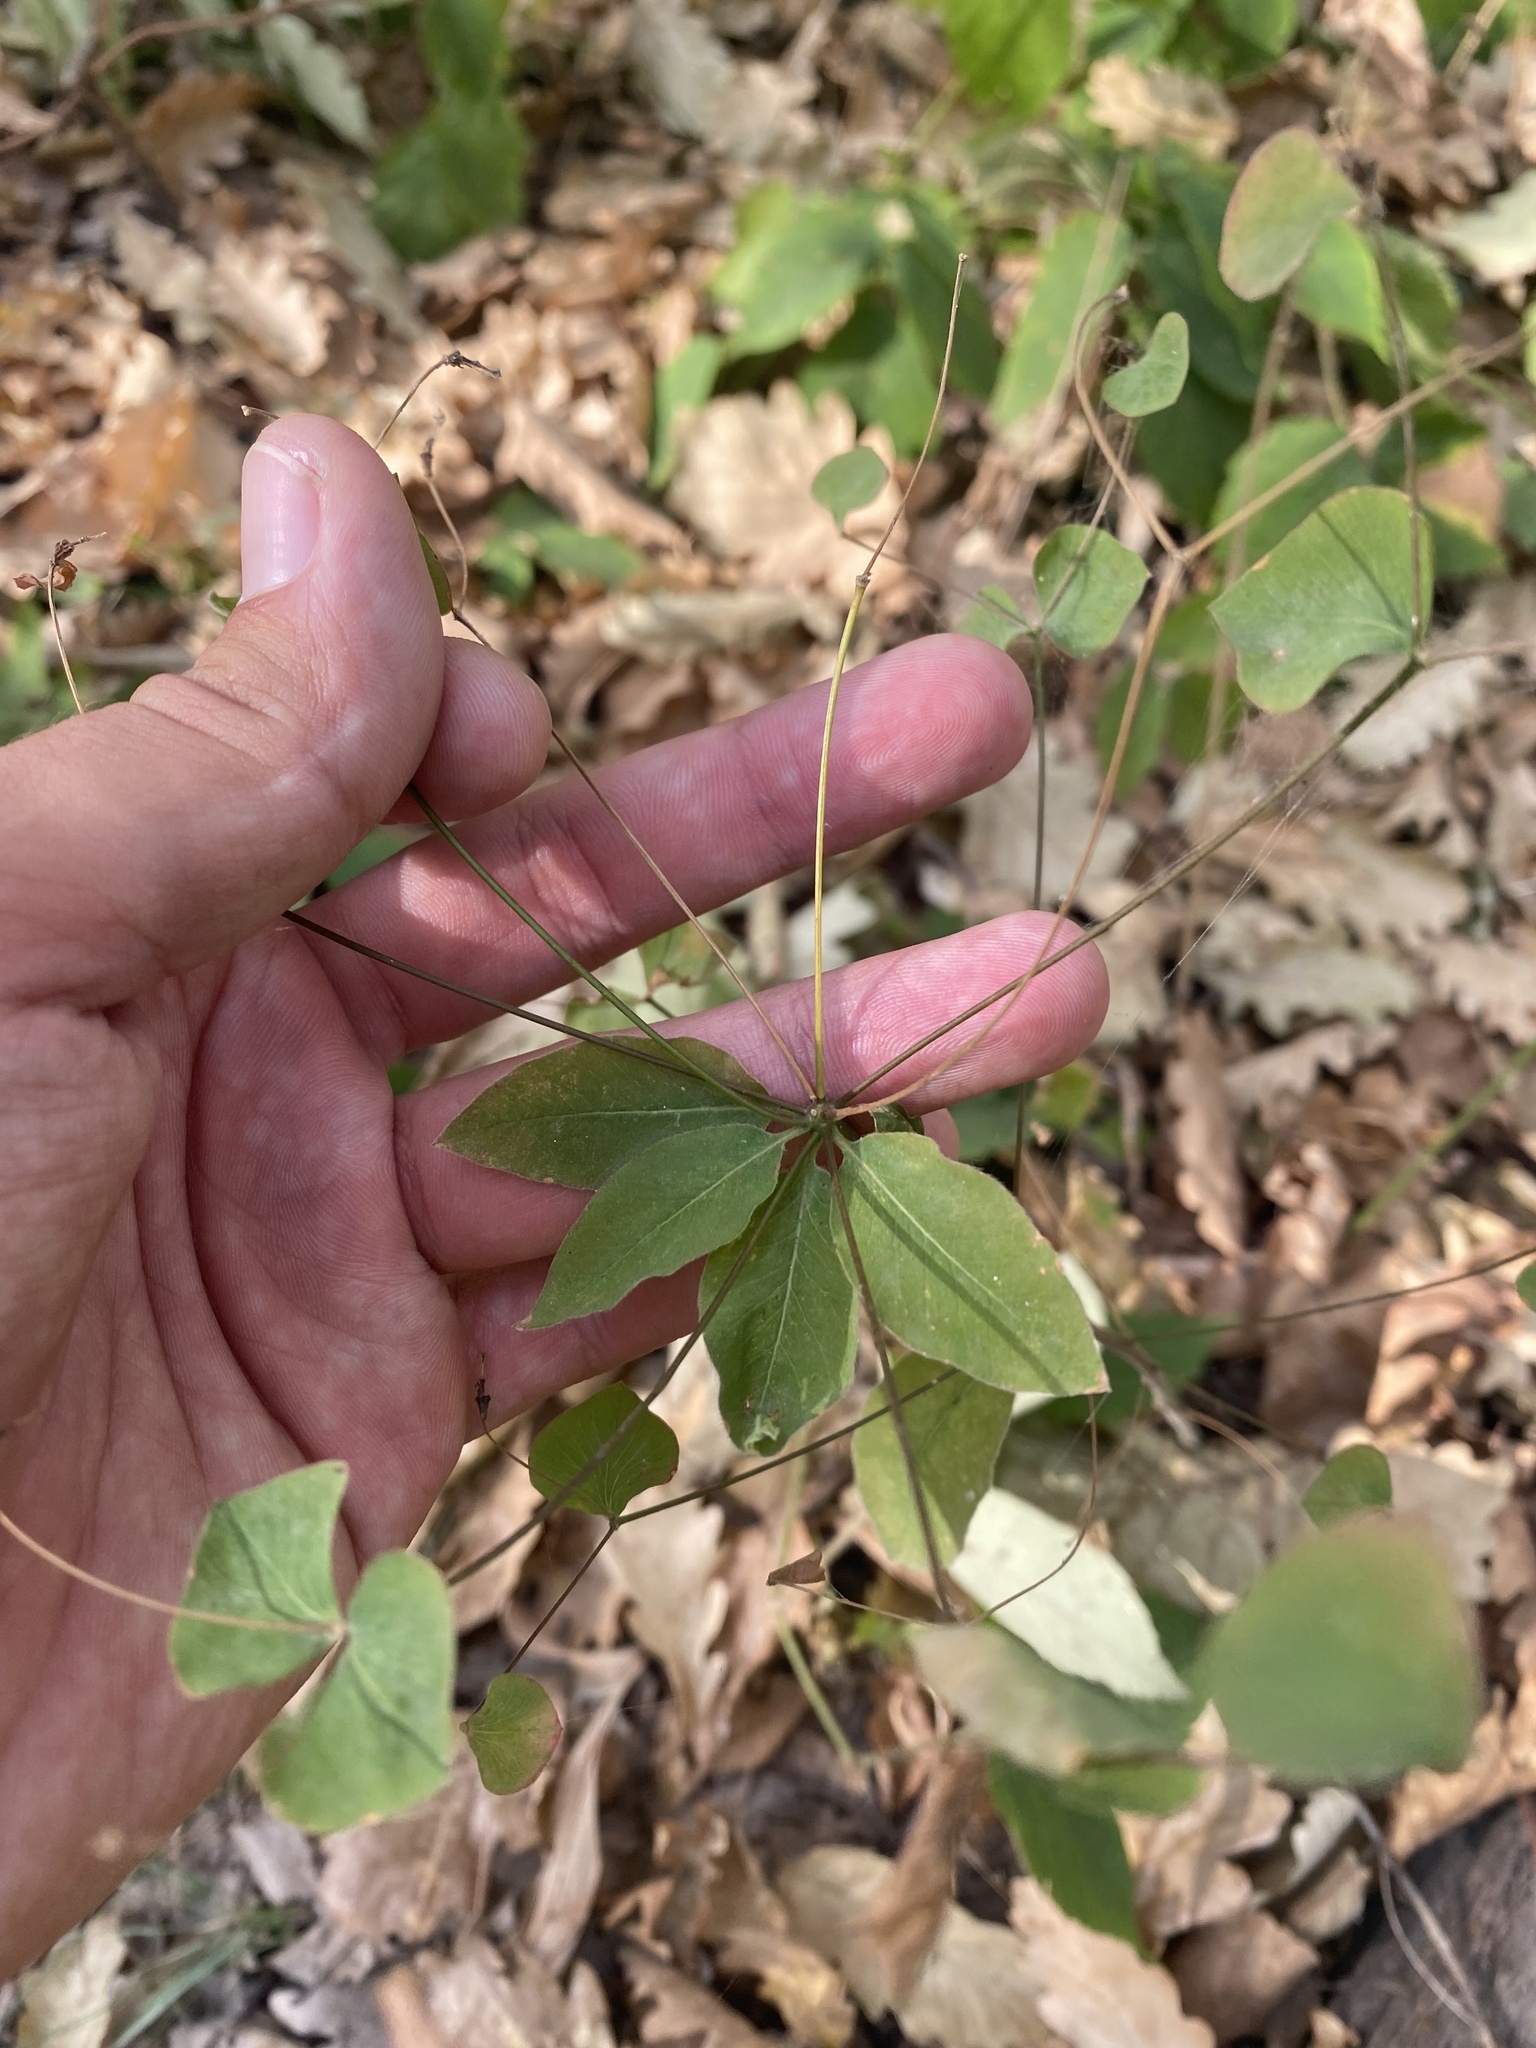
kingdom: Plantae
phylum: Tracheophyta
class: Magnoliopsida
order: Malpighiales
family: Euphorbiaceae
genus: Euphorbia
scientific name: Euphorbia squamosa
